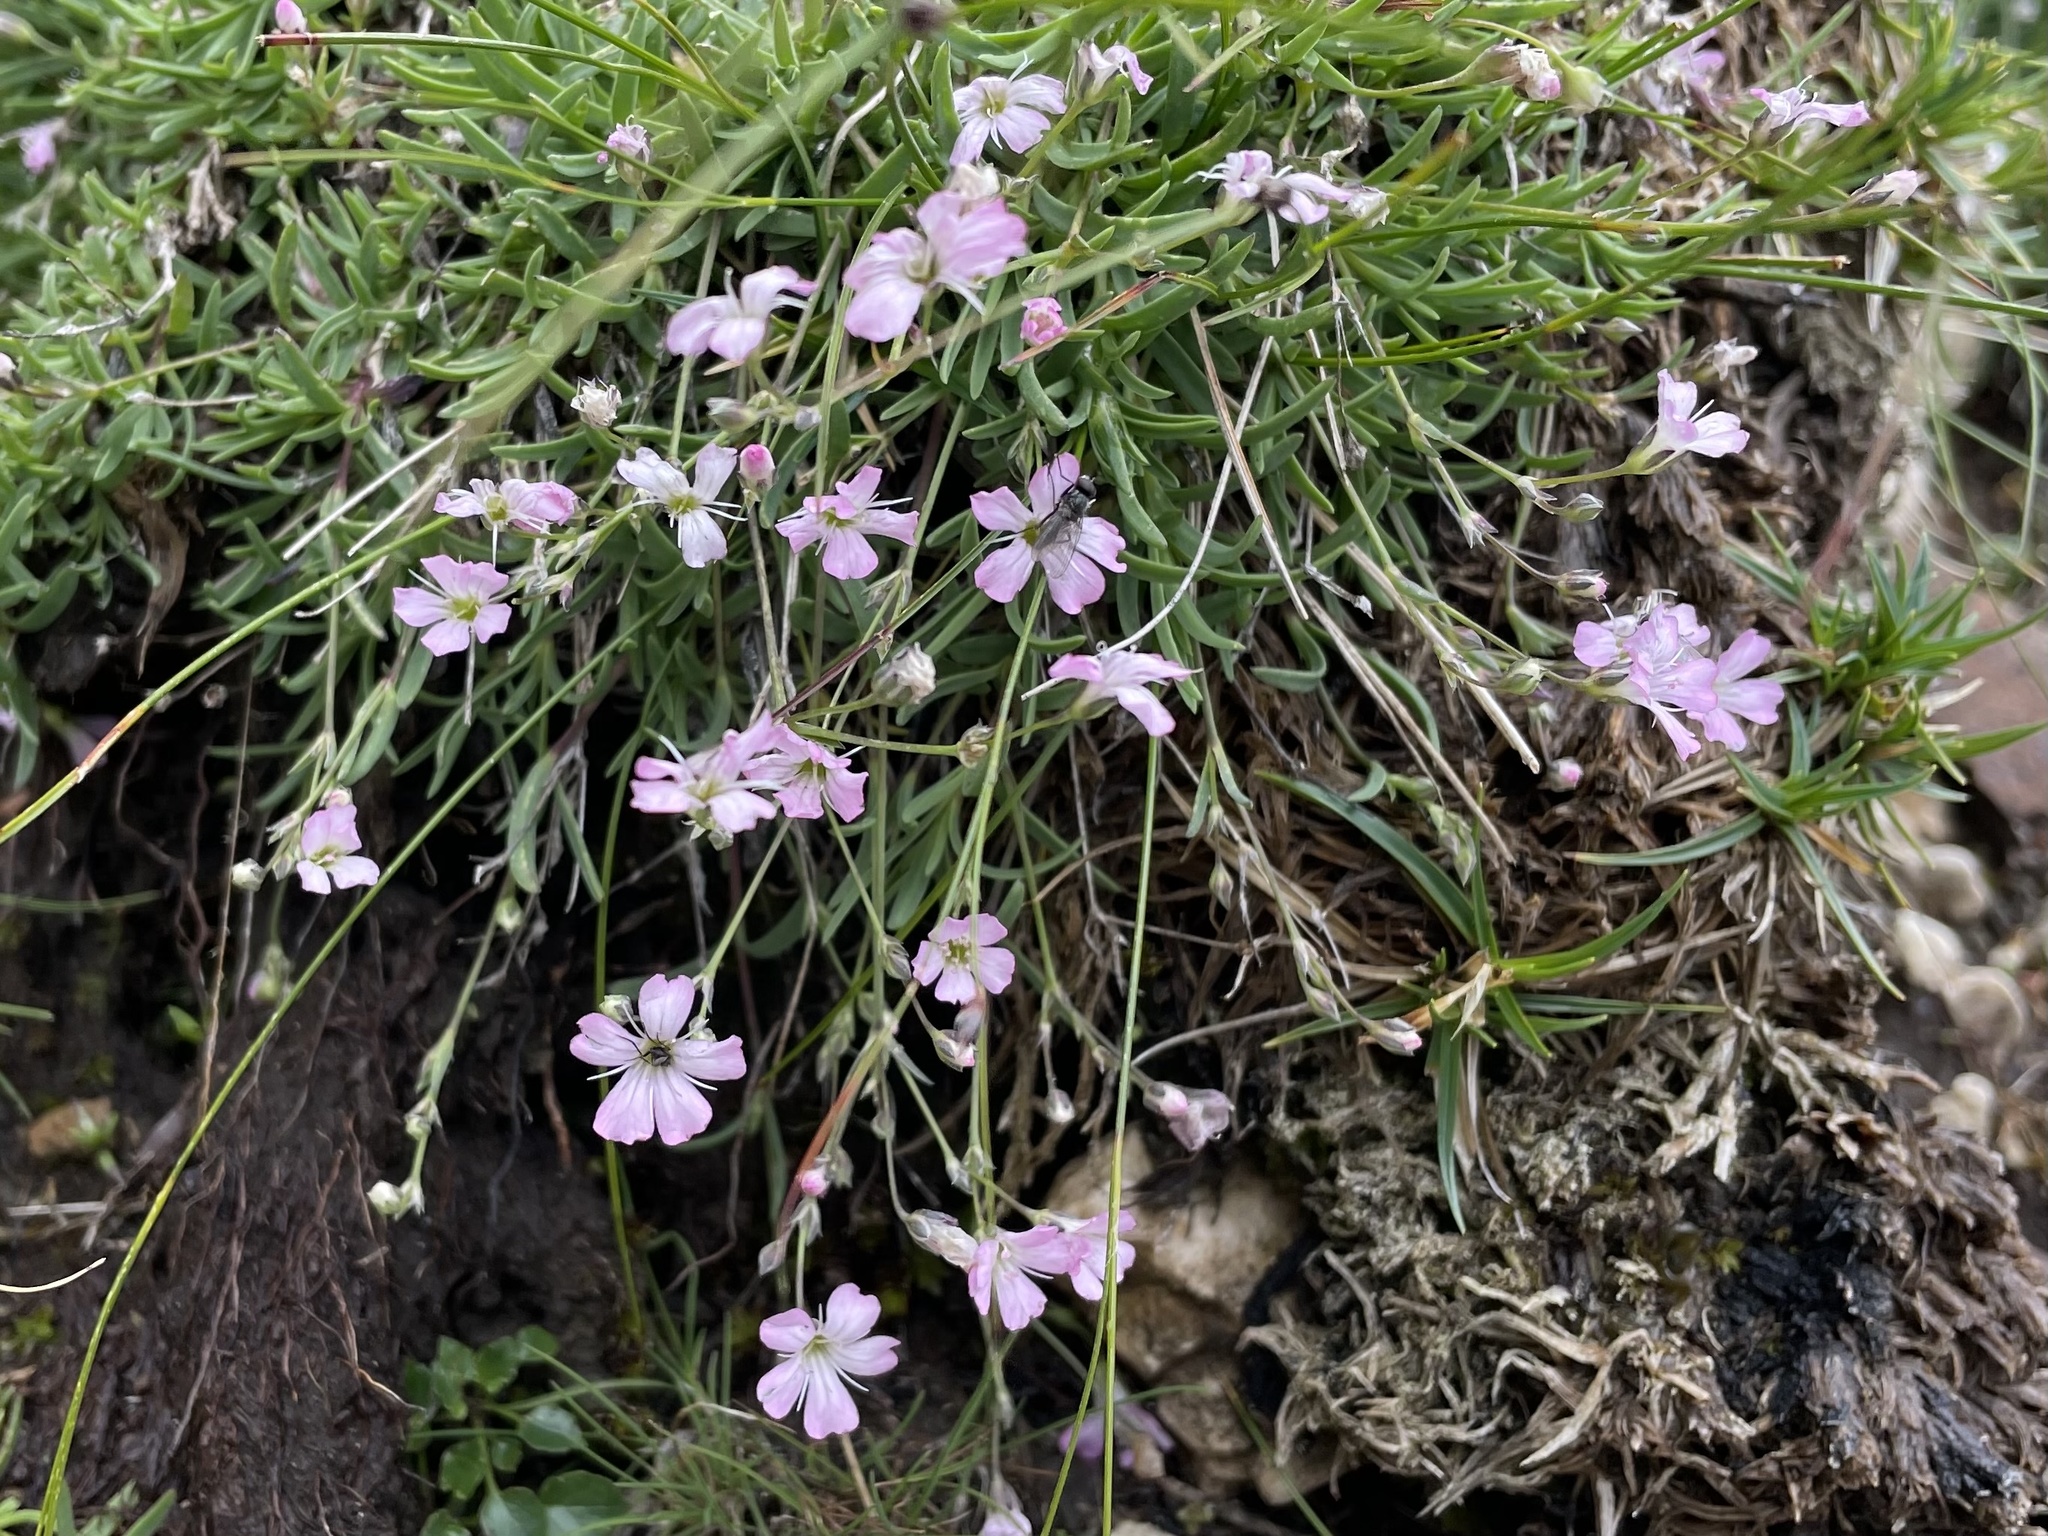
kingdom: Plantae
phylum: Tracheophyta
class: Magnoliopsida
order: Caryophyllales
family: Caryophyllaceae
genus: Gypsophila
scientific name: Gypsophila repens
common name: Creeping baby's-breath
